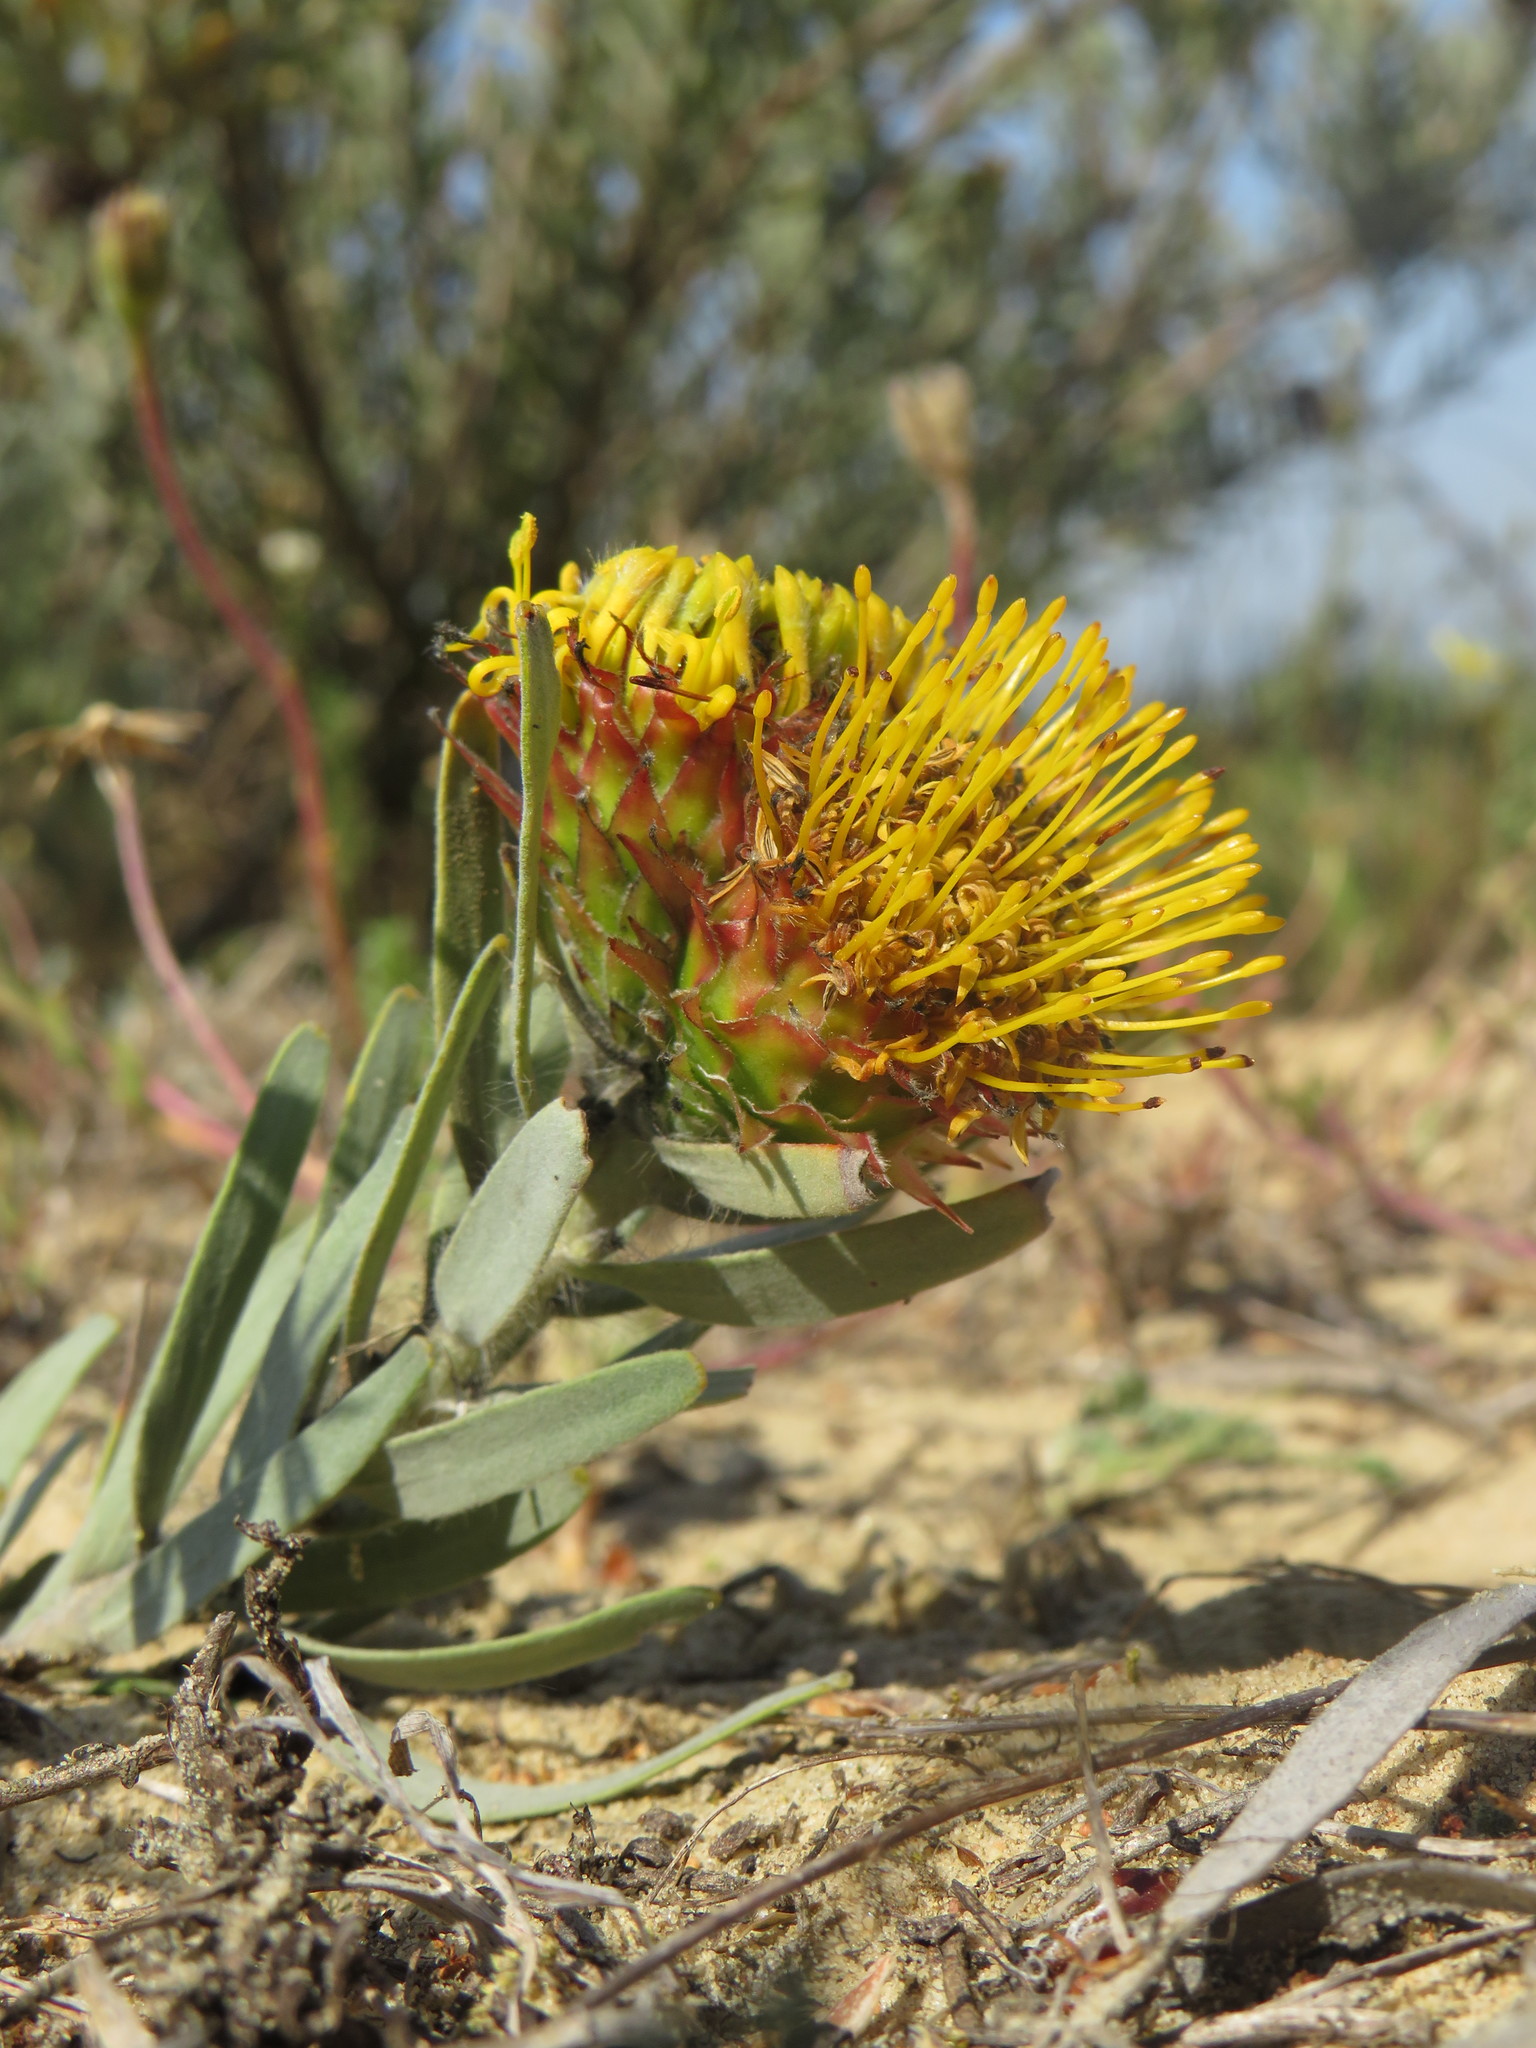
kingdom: Plantae
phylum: Tracheophyta
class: Magnoliopsida
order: Proteales
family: Proteaceae
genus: Leucospermum
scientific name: Leucospermum parile
